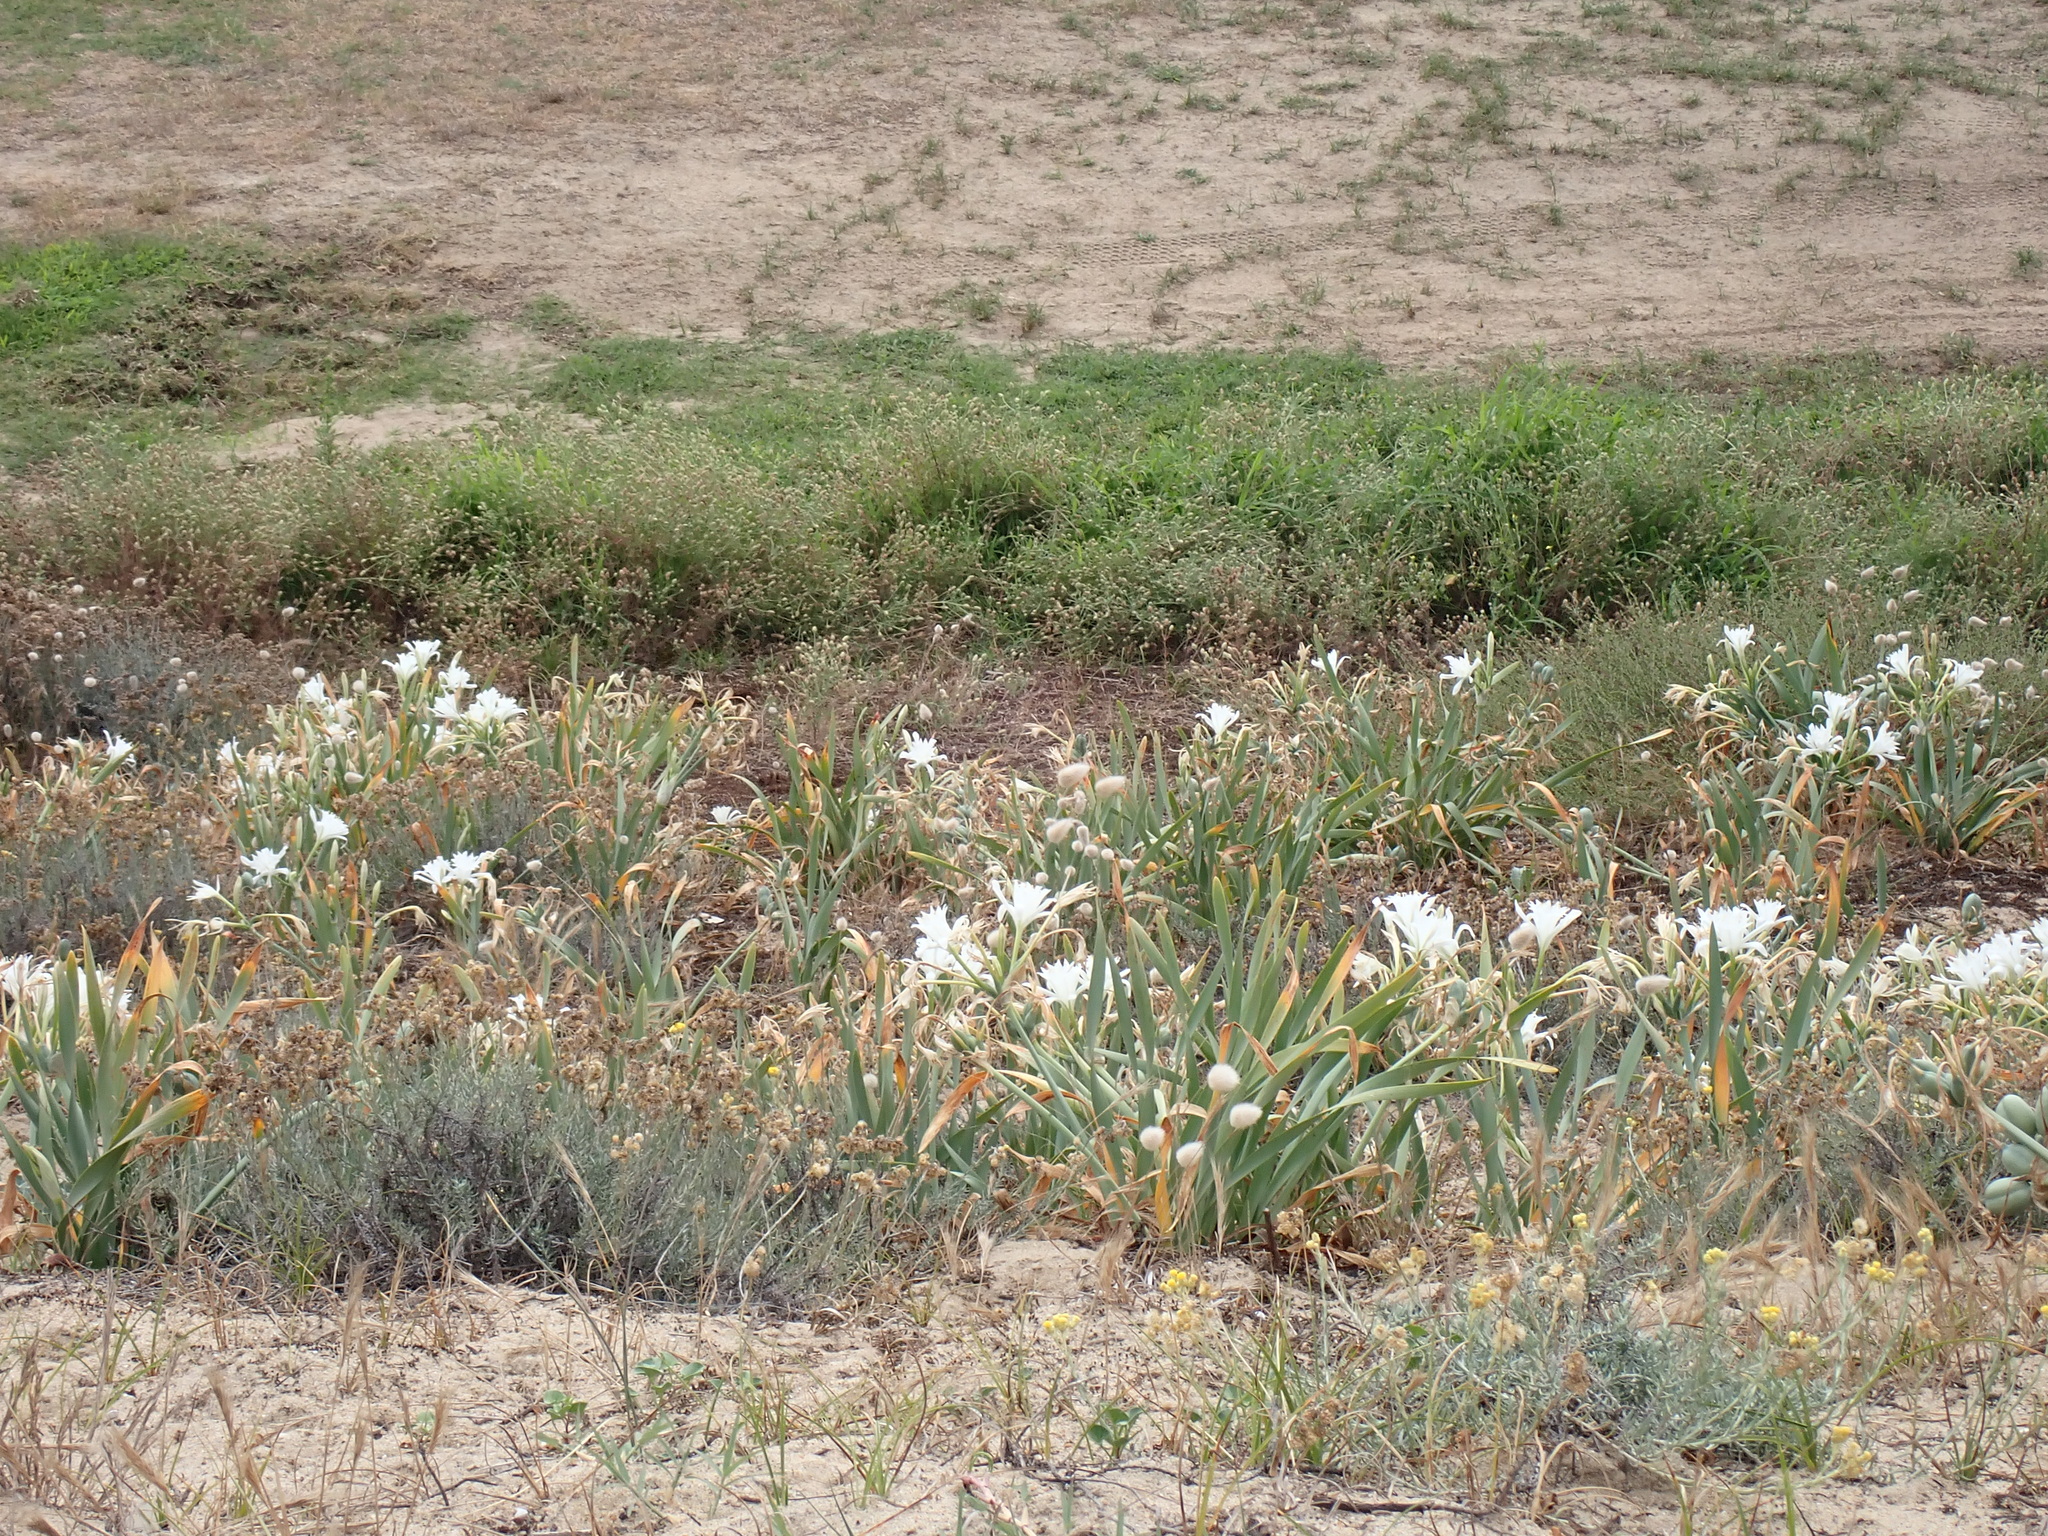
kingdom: Plantae
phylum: Tracheophyta
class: Liliopsida
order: Asparagales
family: Amaryllidaceae
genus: Pancratium
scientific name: Pancratium maritimum
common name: Sea-daffodil
